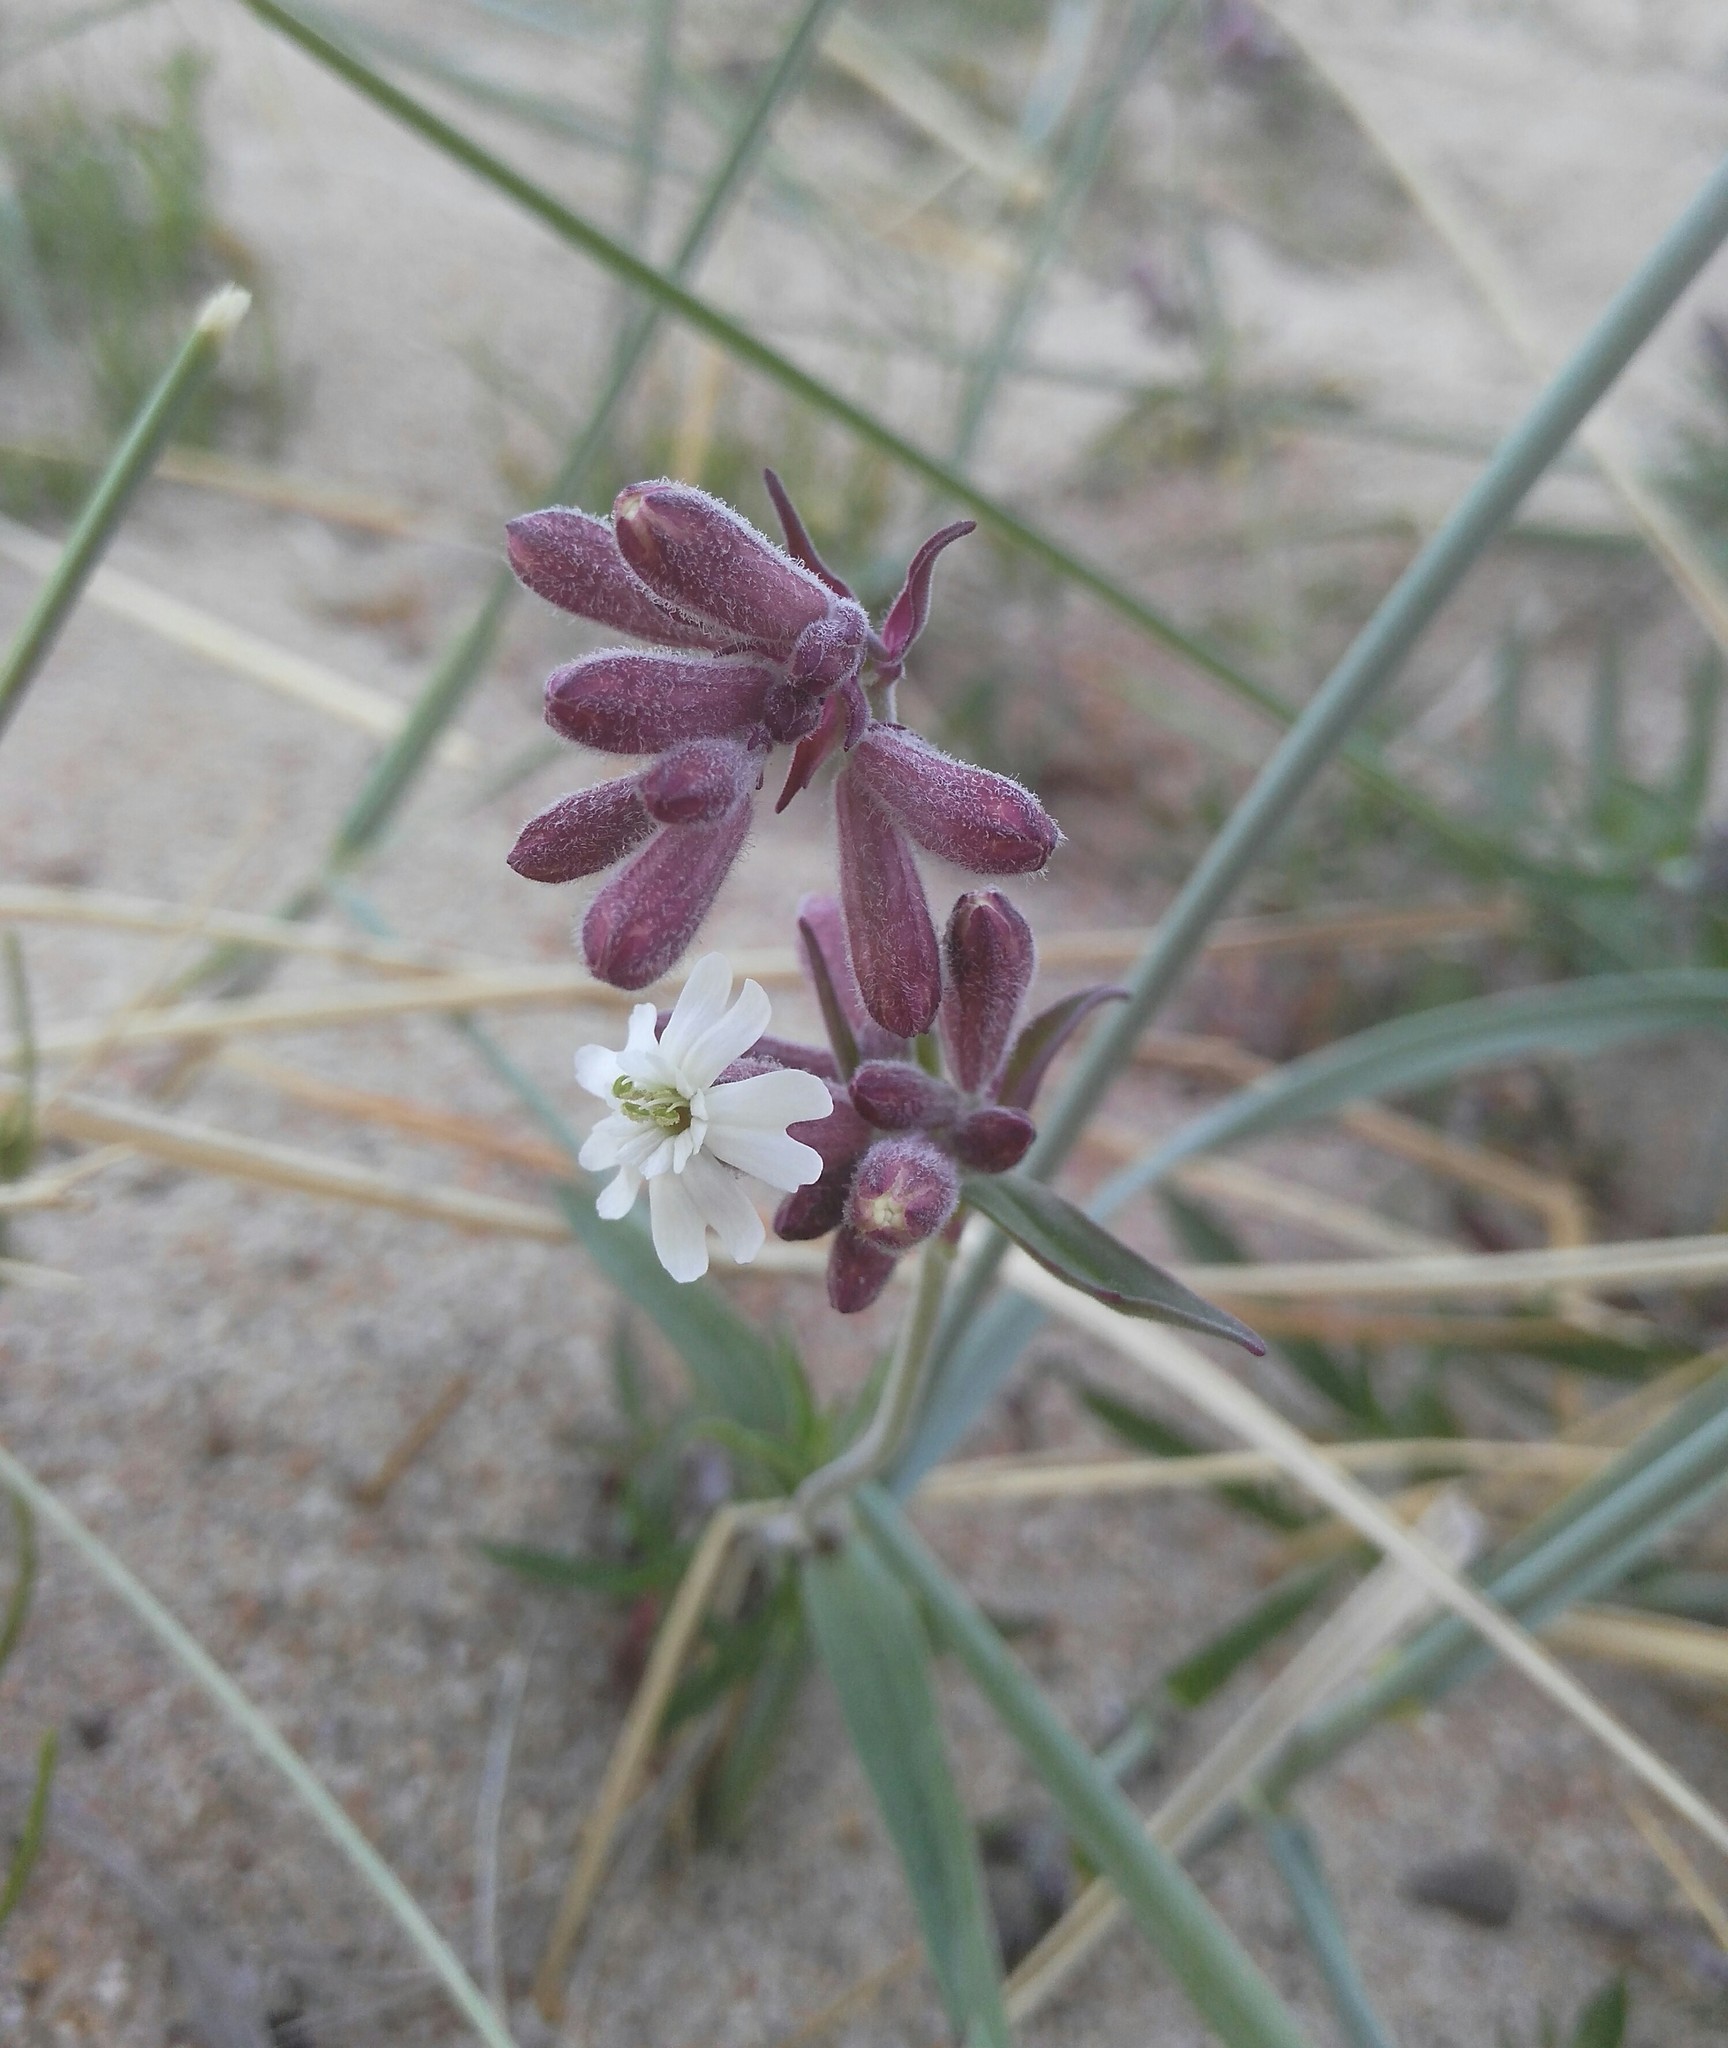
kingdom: Plantae
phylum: Tracheophyta
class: Magnoliopsida
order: Caryophyllales
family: Caryophyllaceae
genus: Silene
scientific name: Silene amoena
